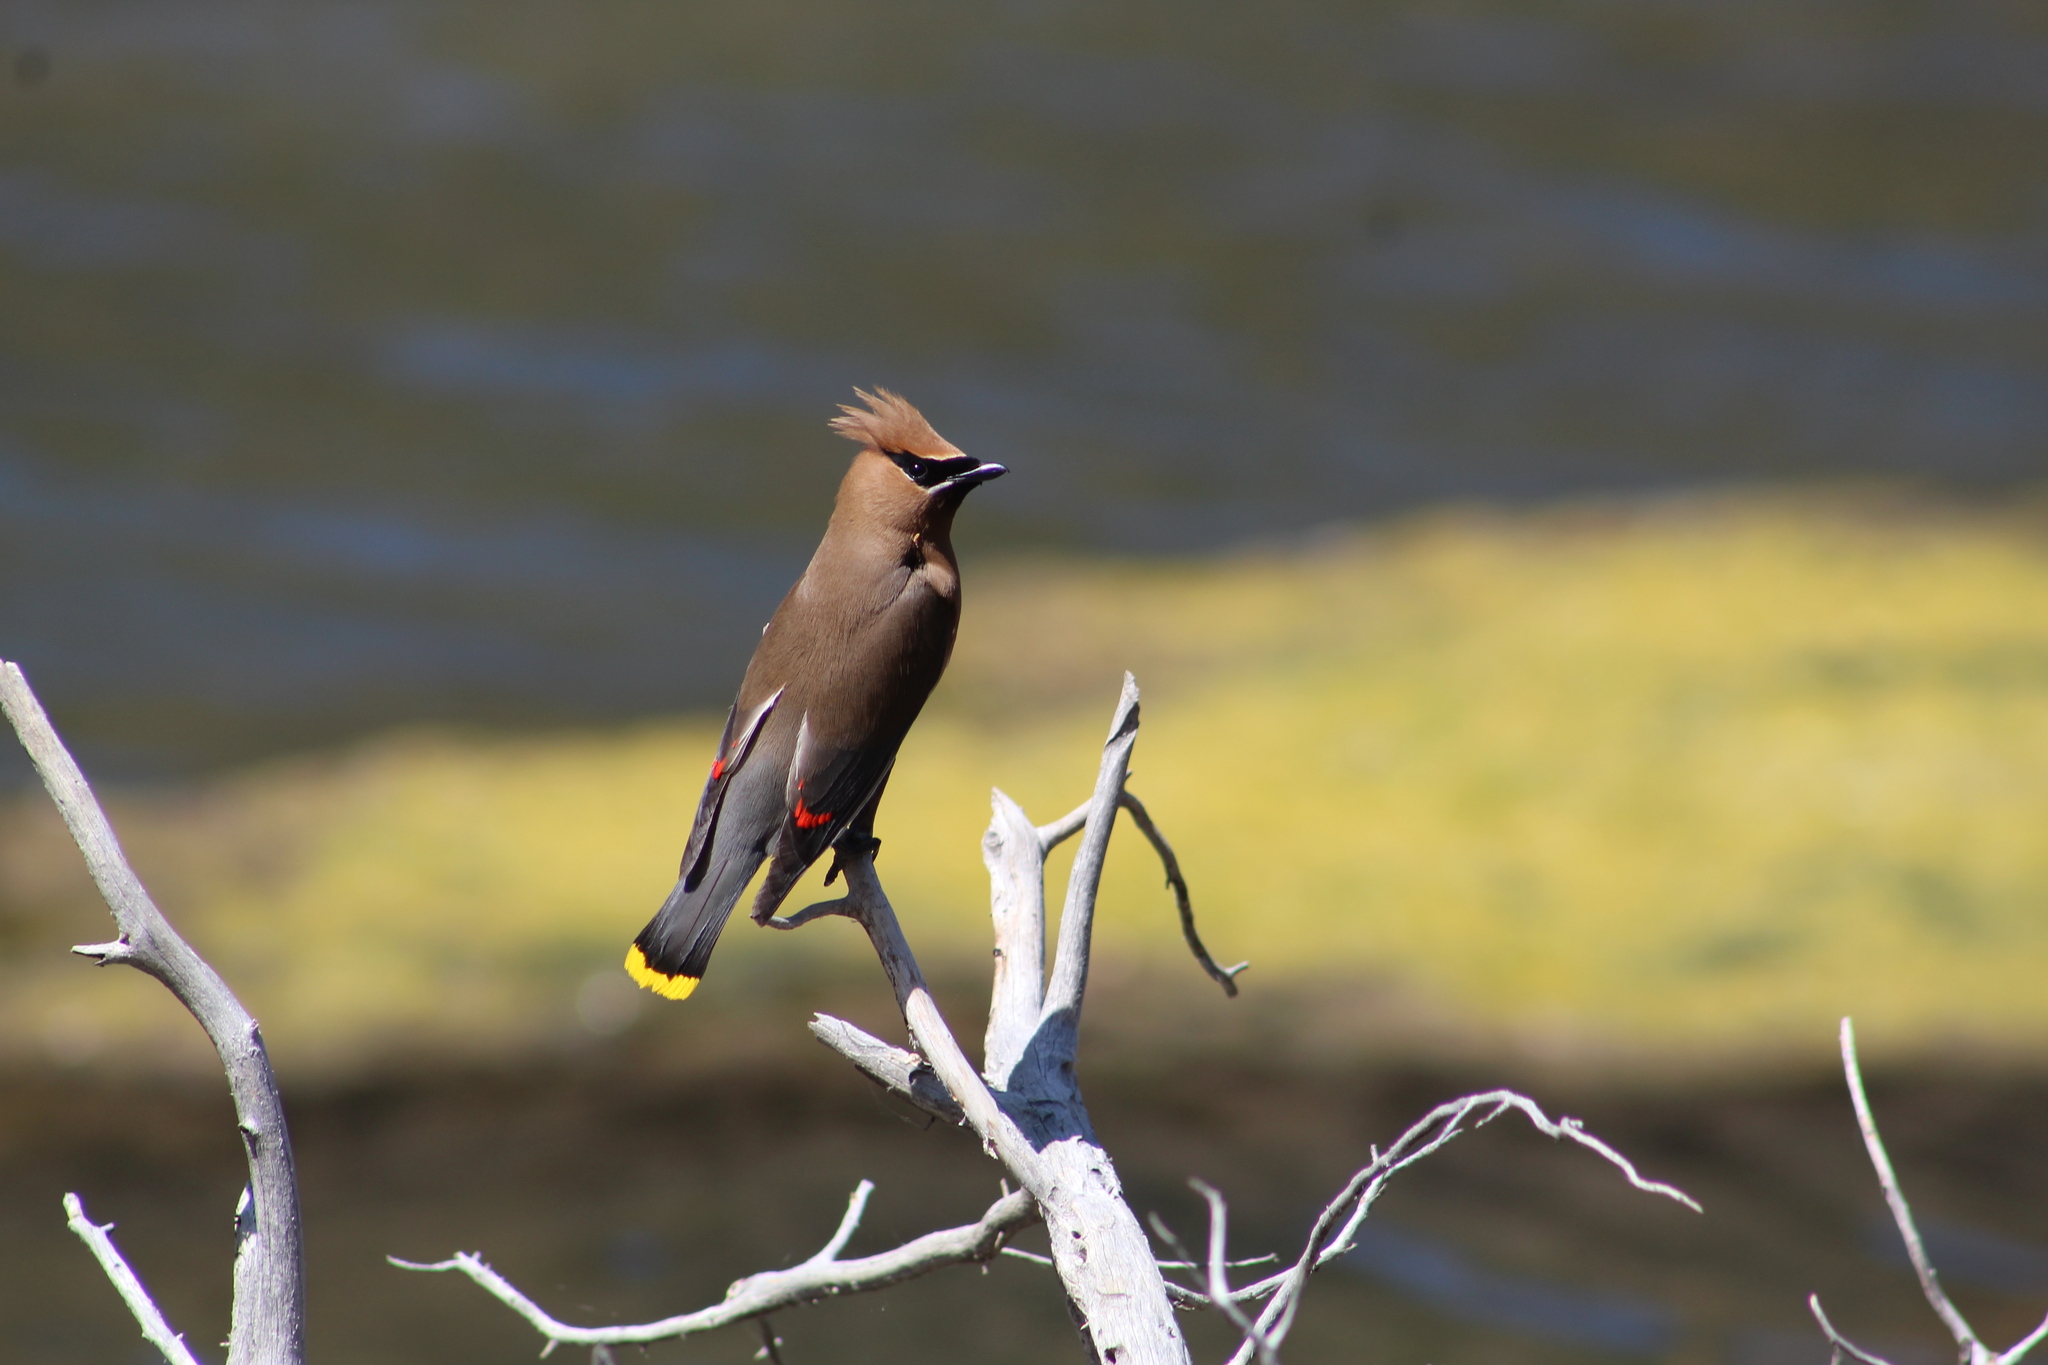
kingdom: Animalia
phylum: Chordata
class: Aves
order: Passeriformes
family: Bombycillidae
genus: Bombycilla
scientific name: Bombycilla cedrorum
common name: Cedar waxwing
